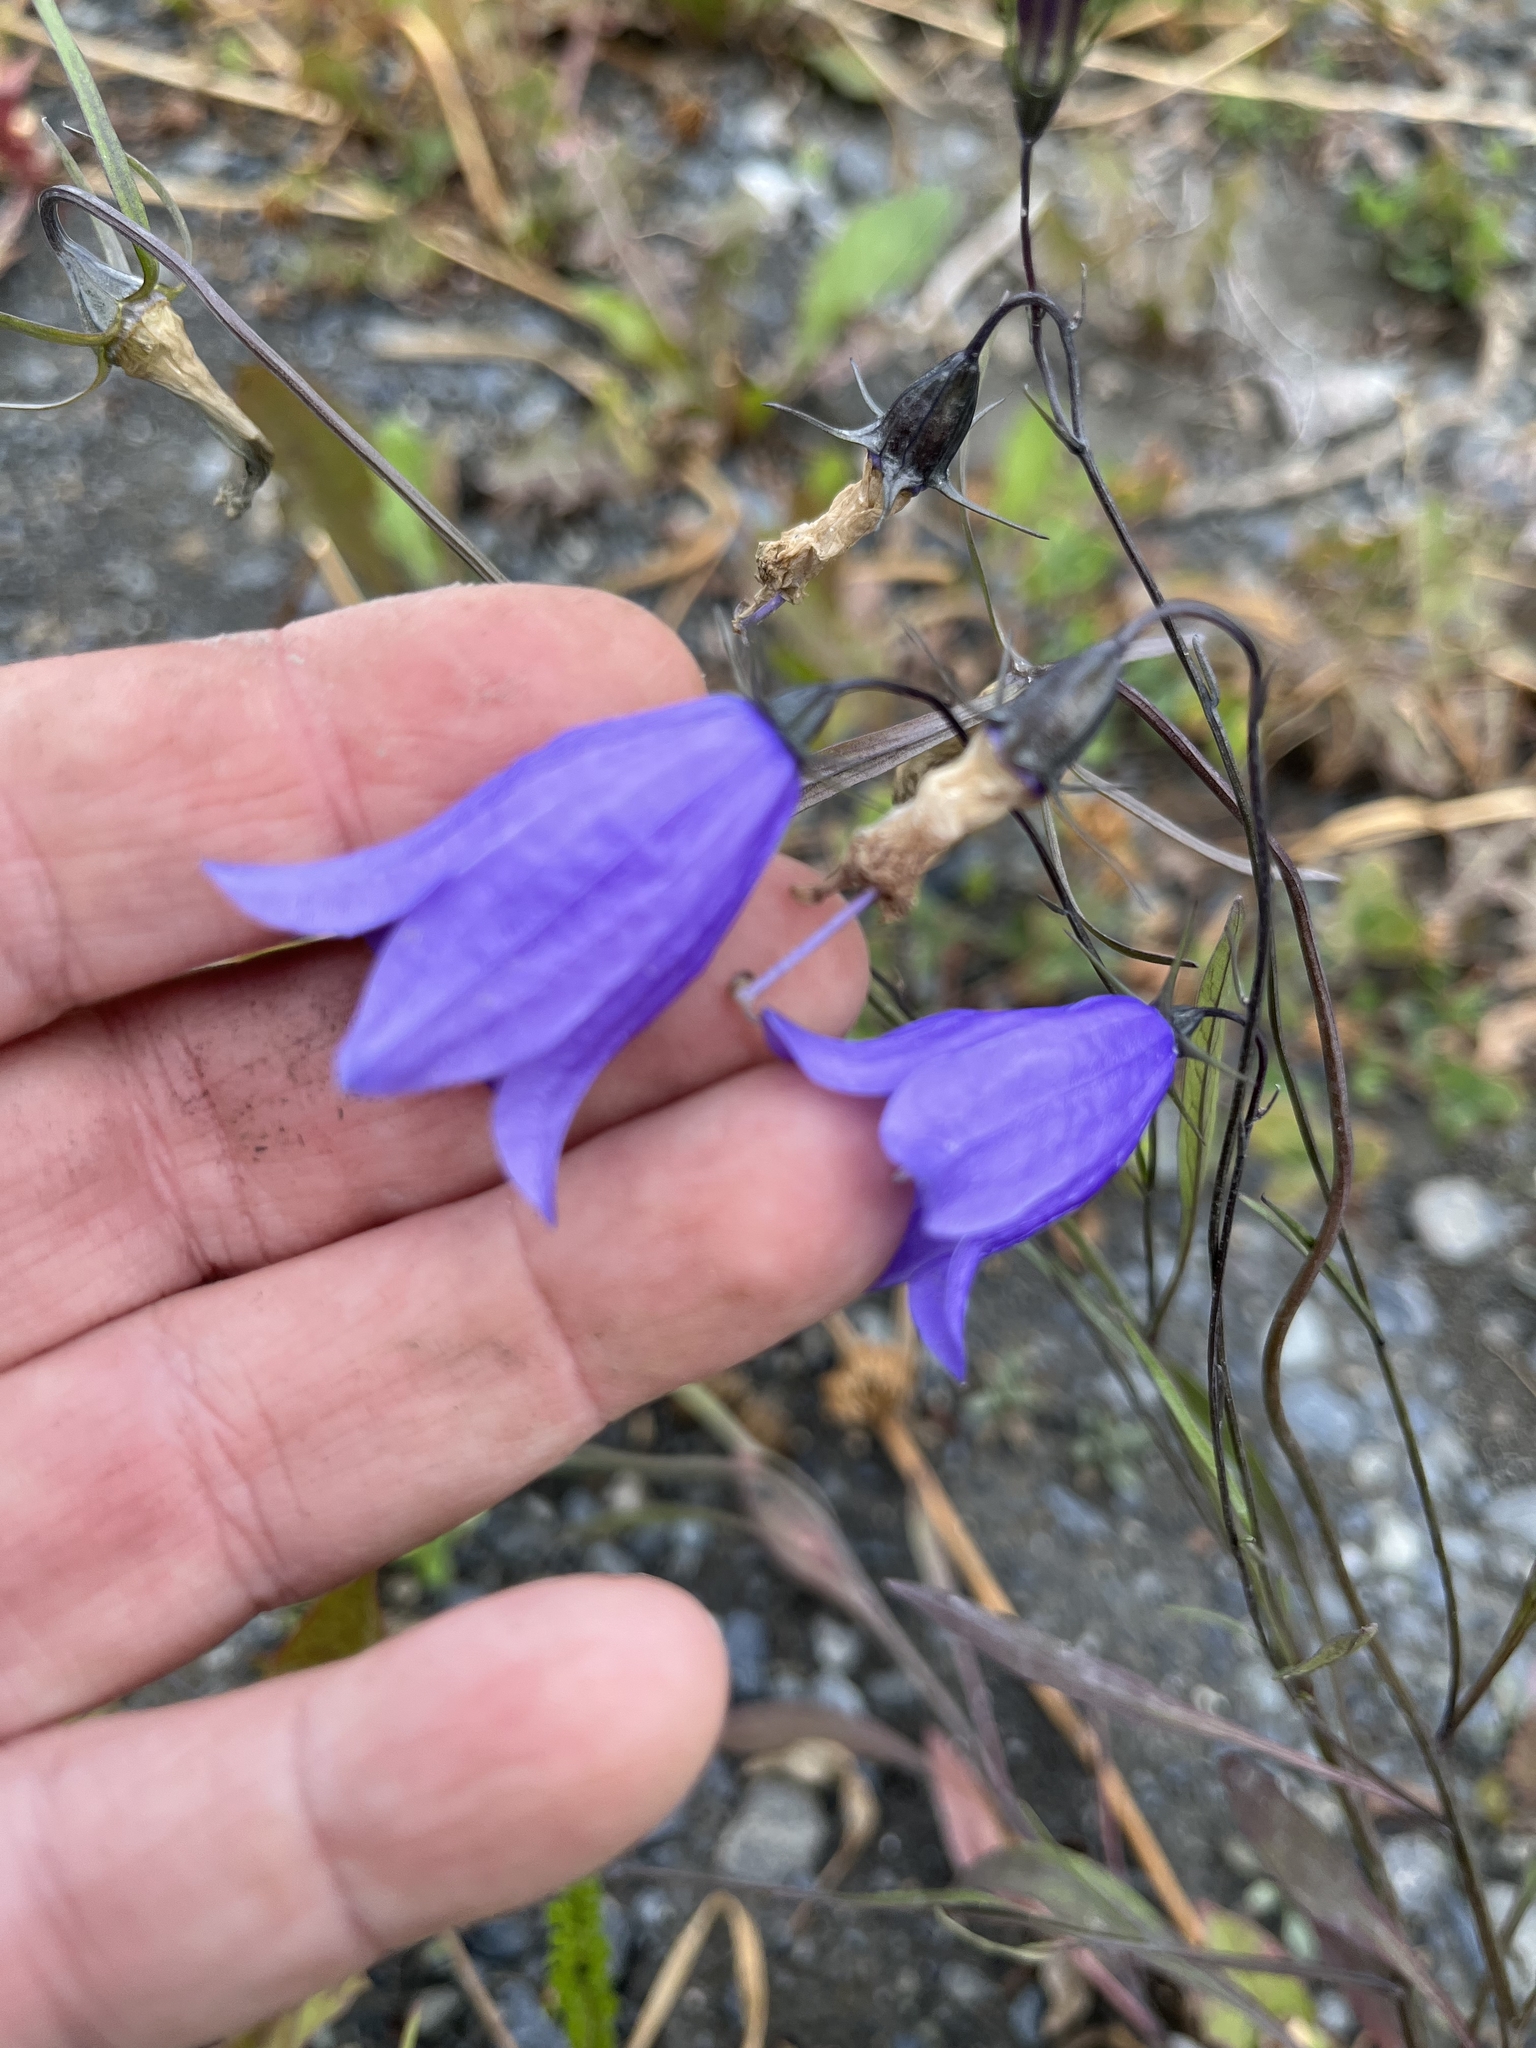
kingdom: Plantae
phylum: Tracheophyta
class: Magnoliopsida
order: Asterales
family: Campanulaceae
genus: Campanula
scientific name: Campanula alaskana
